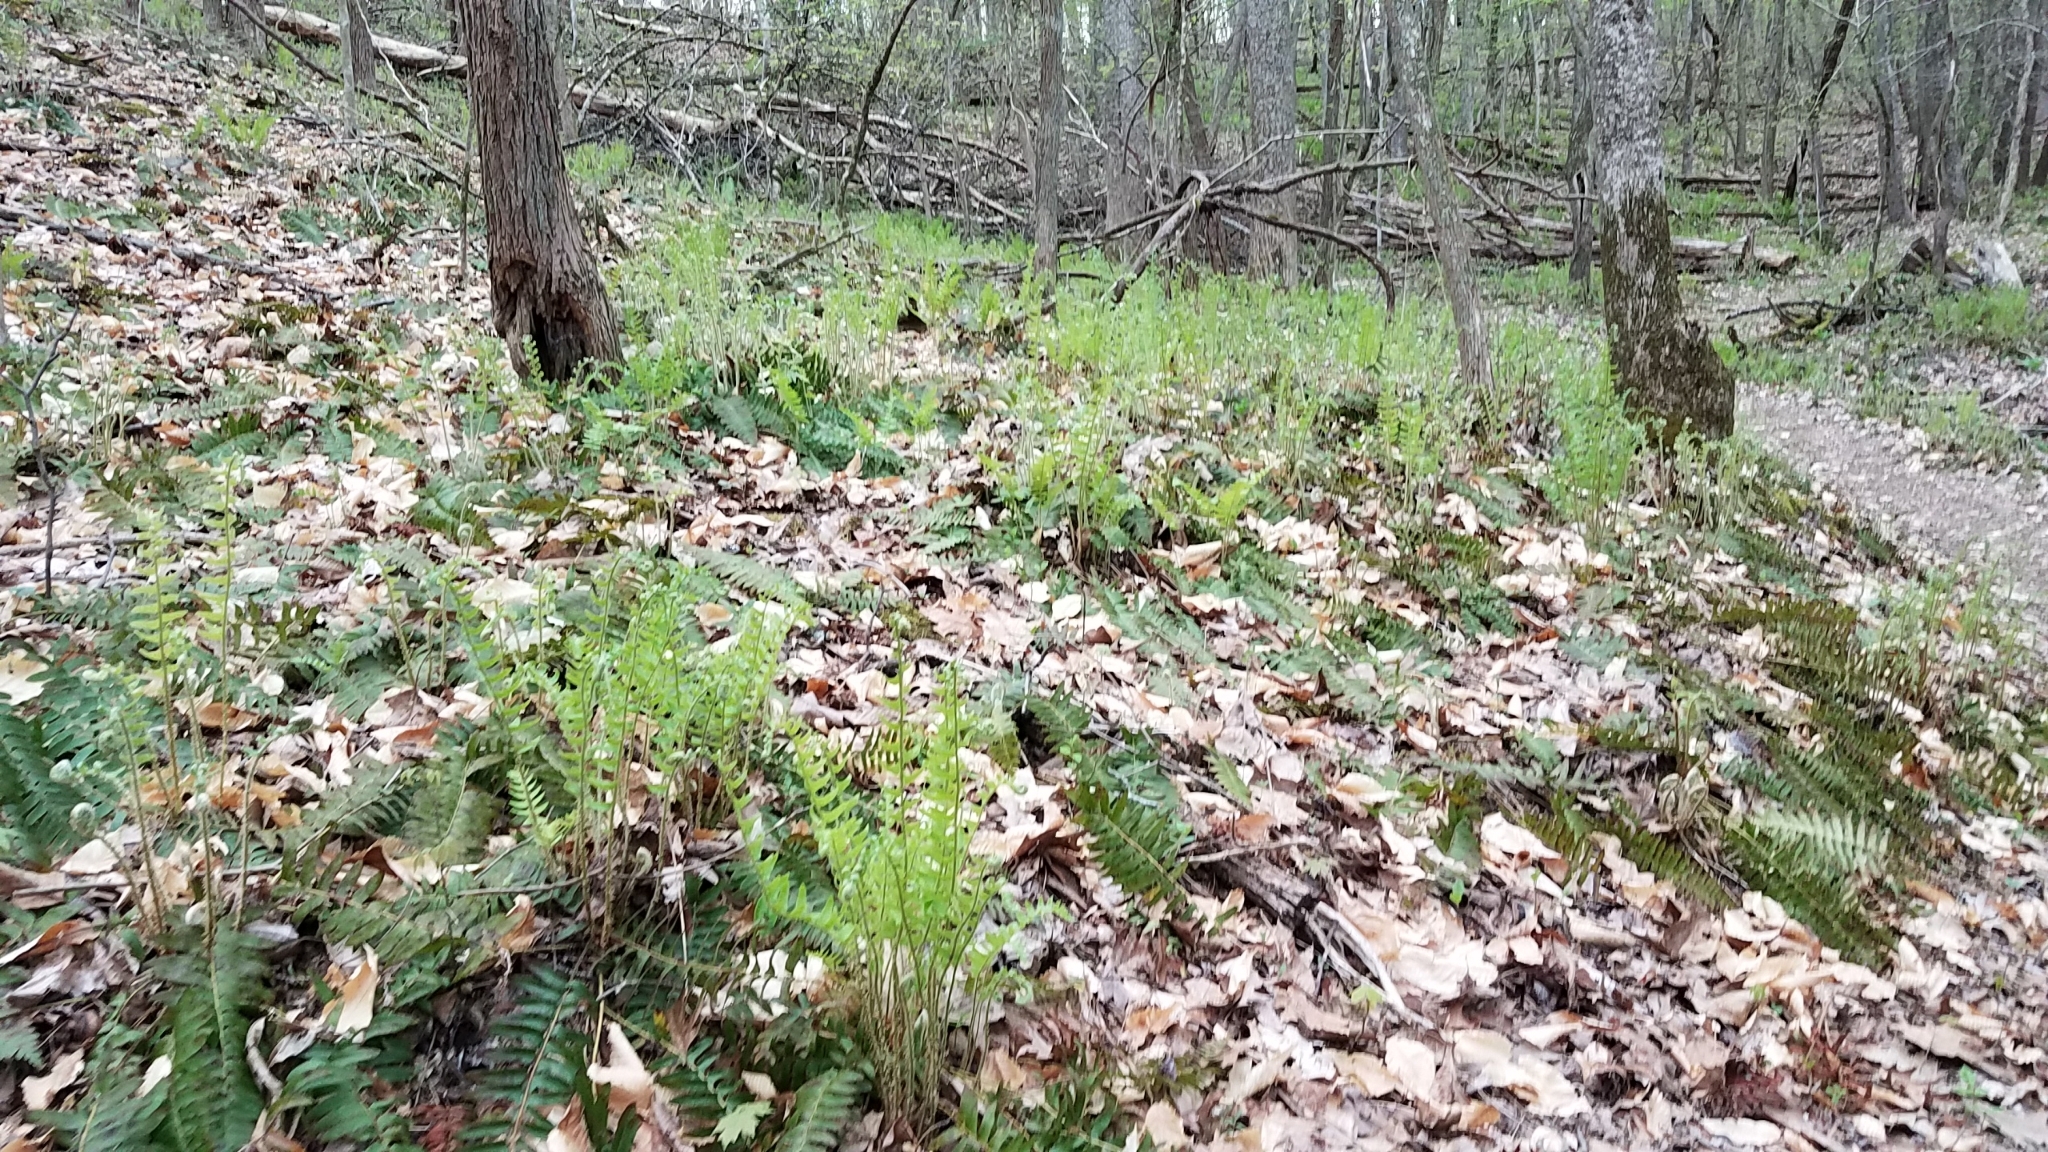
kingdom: Plantae
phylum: Tracheophyta
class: Polypodiopsida
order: Polypodiales
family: Dryopteridaceae
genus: Polystichum
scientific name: Polystichum acrostichoides
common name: Christmas fern
